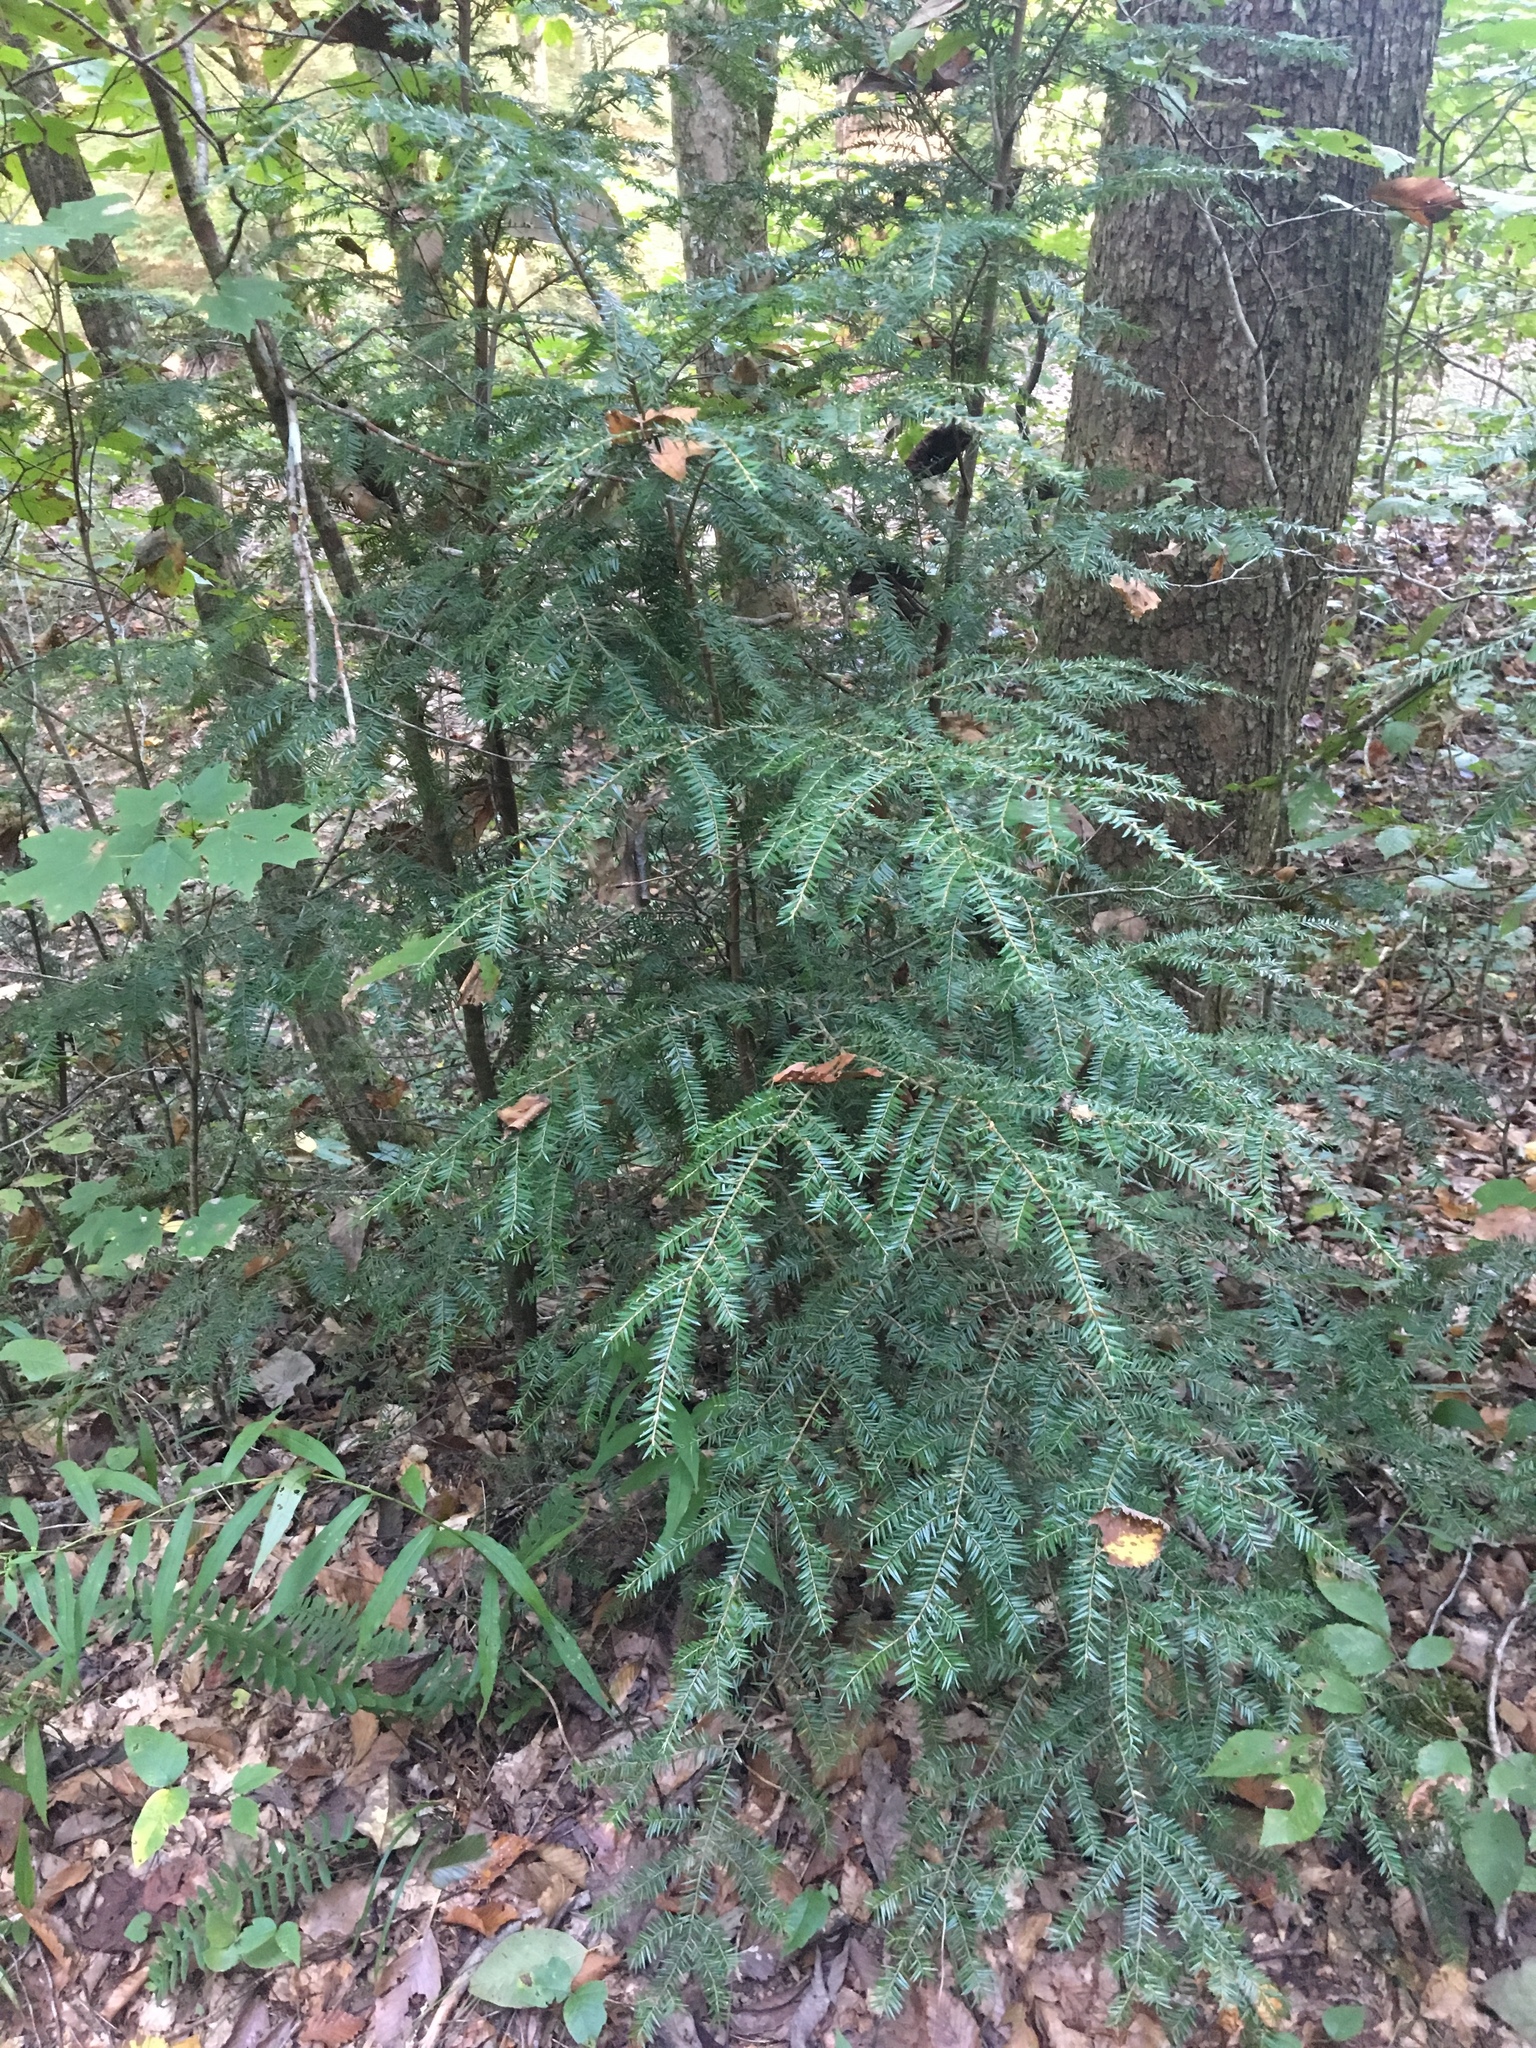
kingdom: Plantae
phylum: Tracheophyta
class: Pinopsida
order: Pinales
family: Pinaceae
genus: Tsuga
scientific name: Tsuga canadensis
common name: Eastern hemlock
